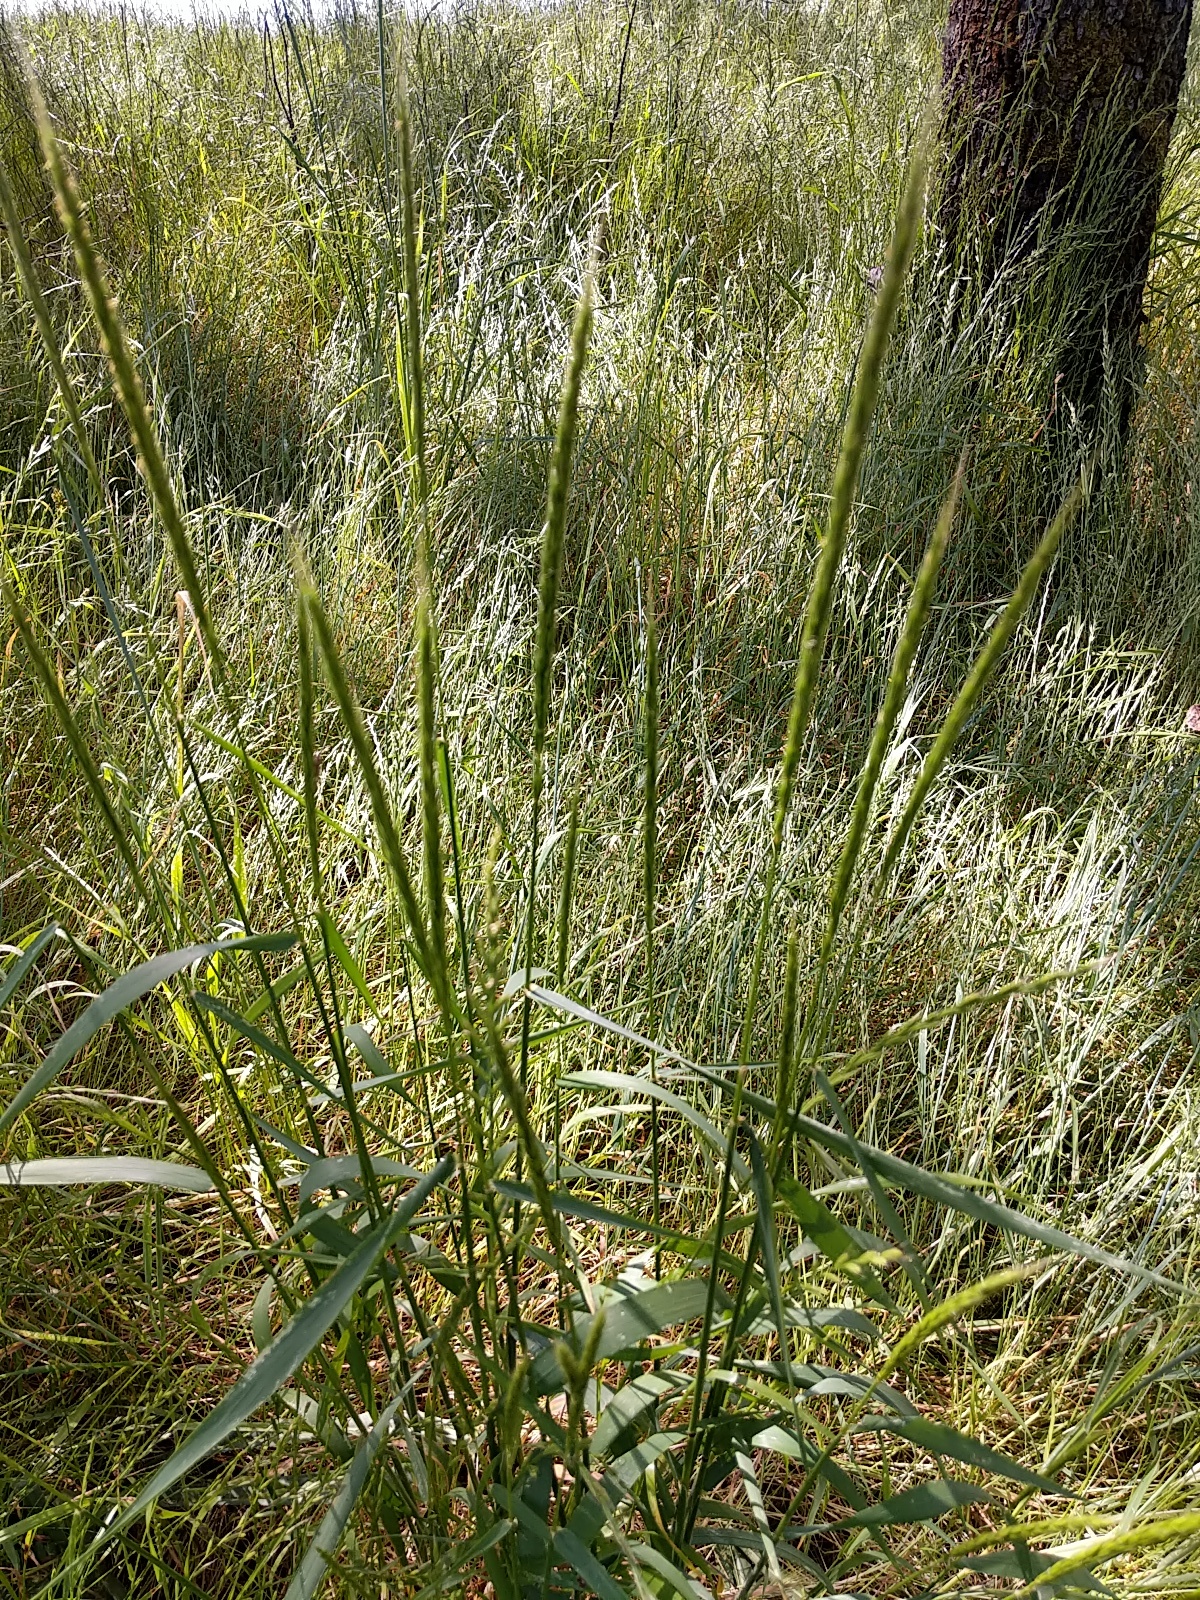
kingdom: Plantae
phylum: Tracheophyta
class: Liliopsida
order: Poales
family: Poaceae
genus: Elymus
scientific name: Elymus glaucus
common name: Blue wild rye
